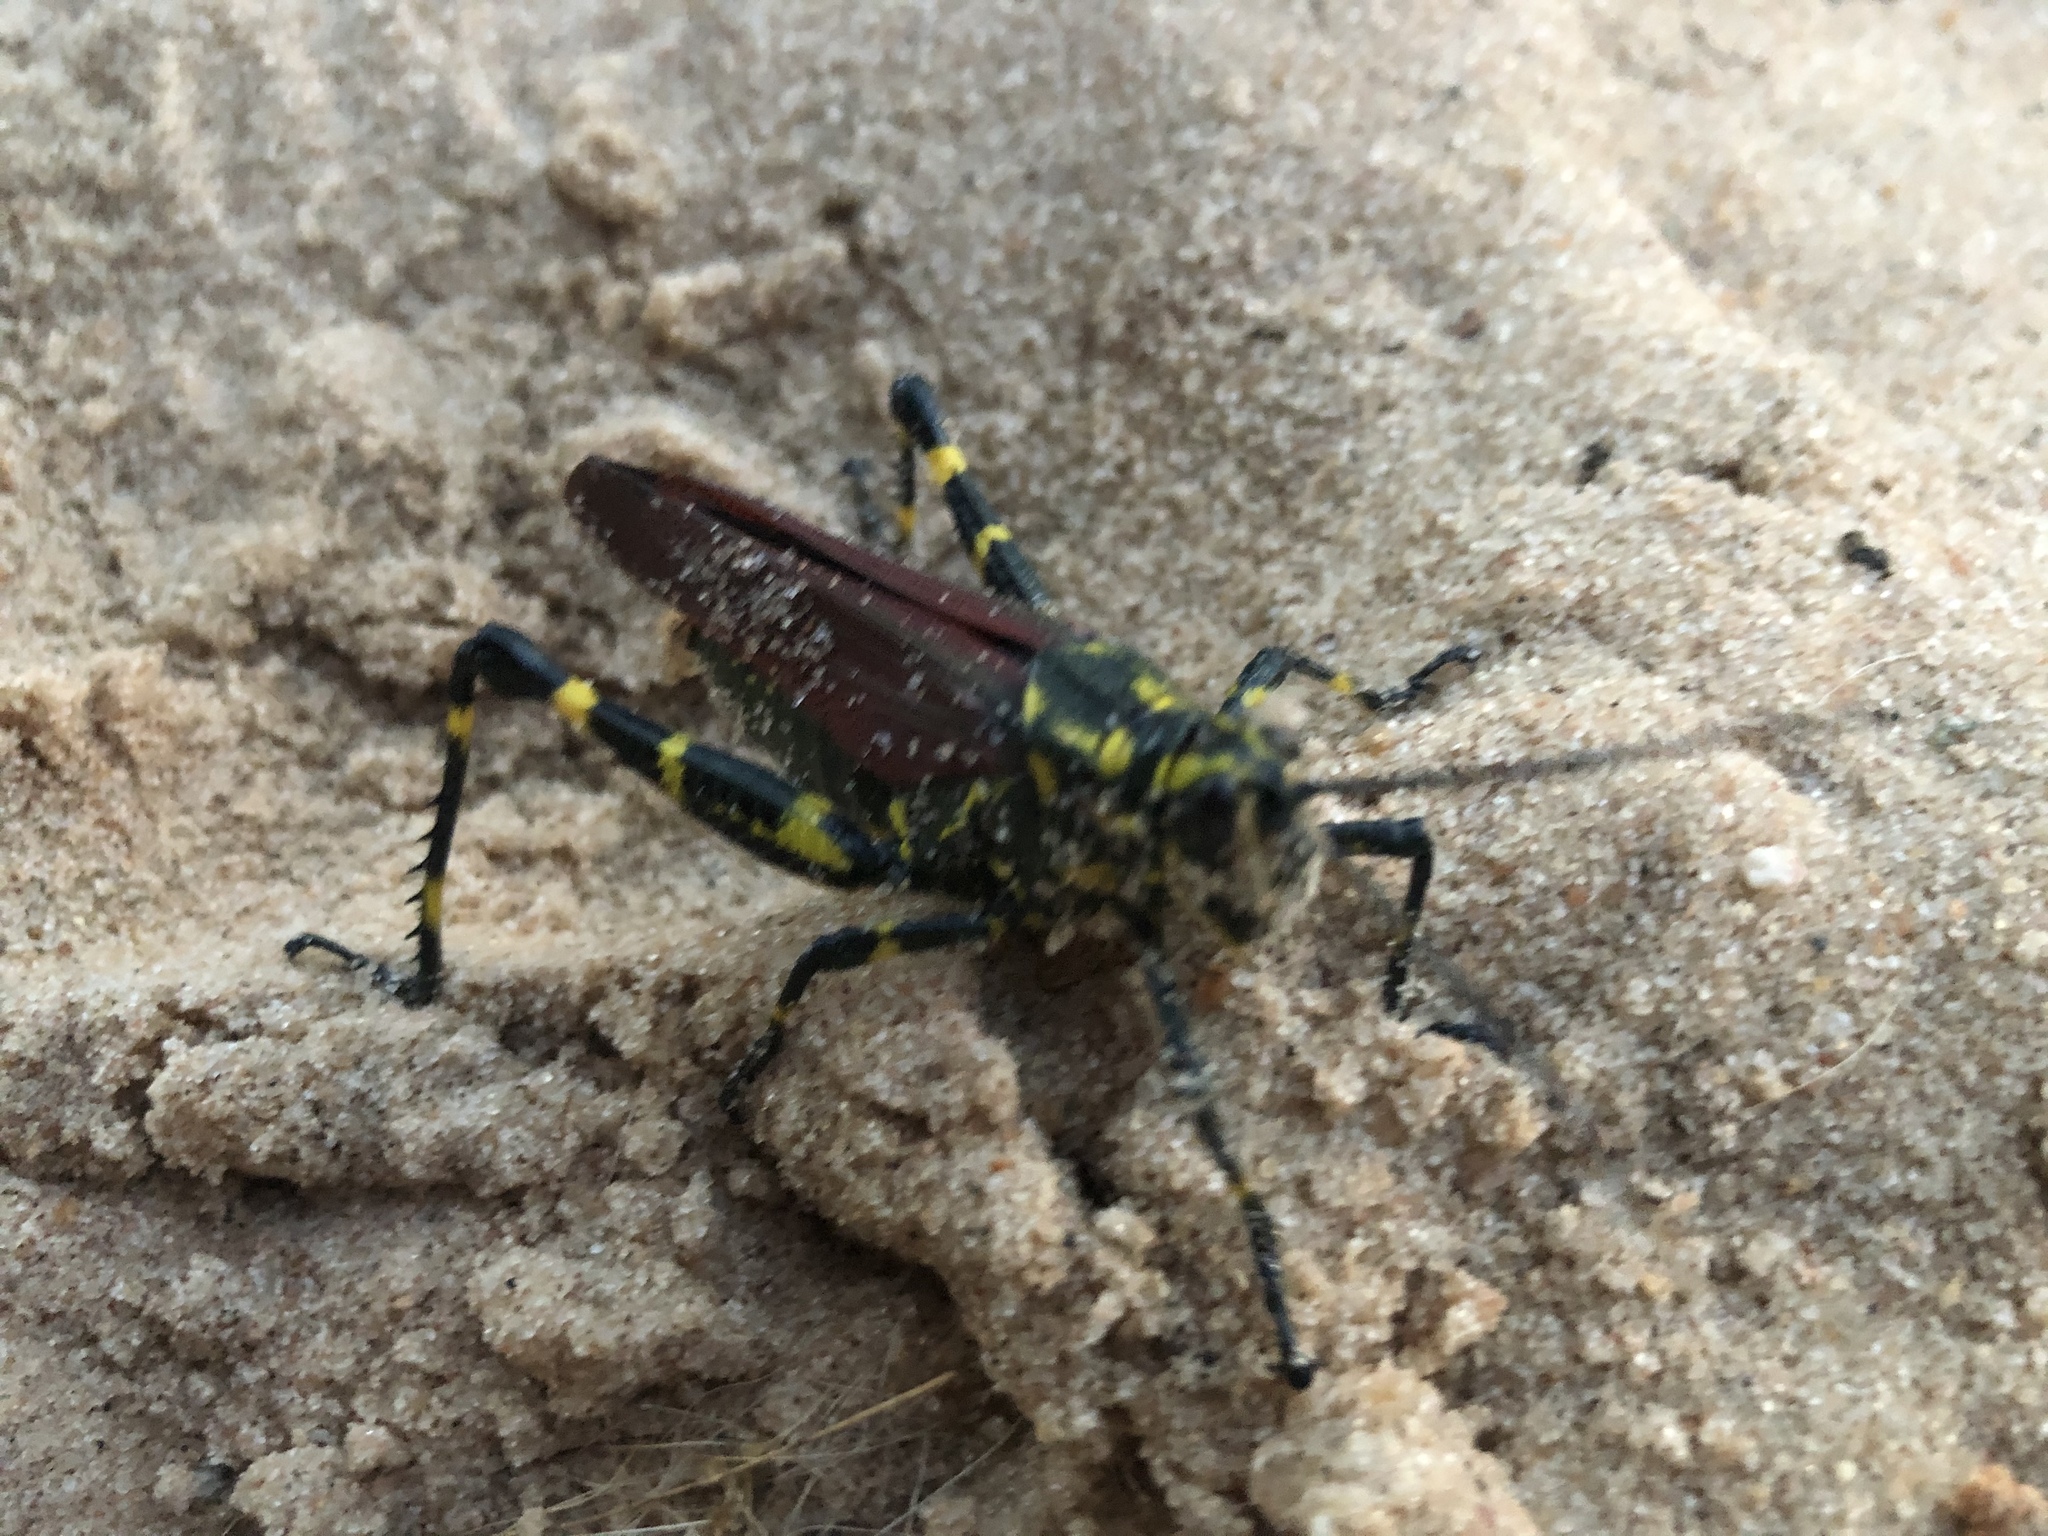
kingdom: Animalia
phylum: Arthropoda
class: Insecta
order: Orthoptera
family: Romaleidae
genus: Chromacris
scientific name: Chromacris speciosa
